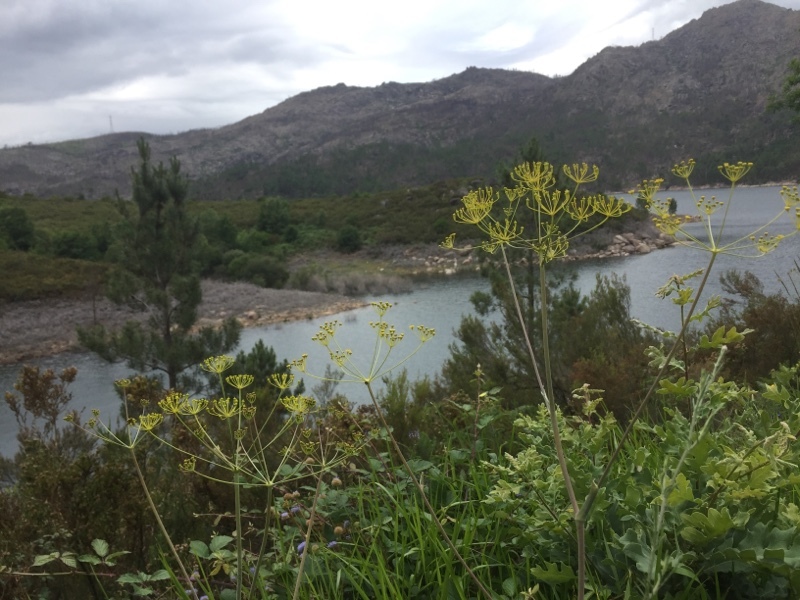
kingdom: Plantae
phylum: Tracheophyta
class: Magnoliopsida
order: Apiales
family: Apiaceae
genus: Thapsia
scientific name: Thapsia minor
